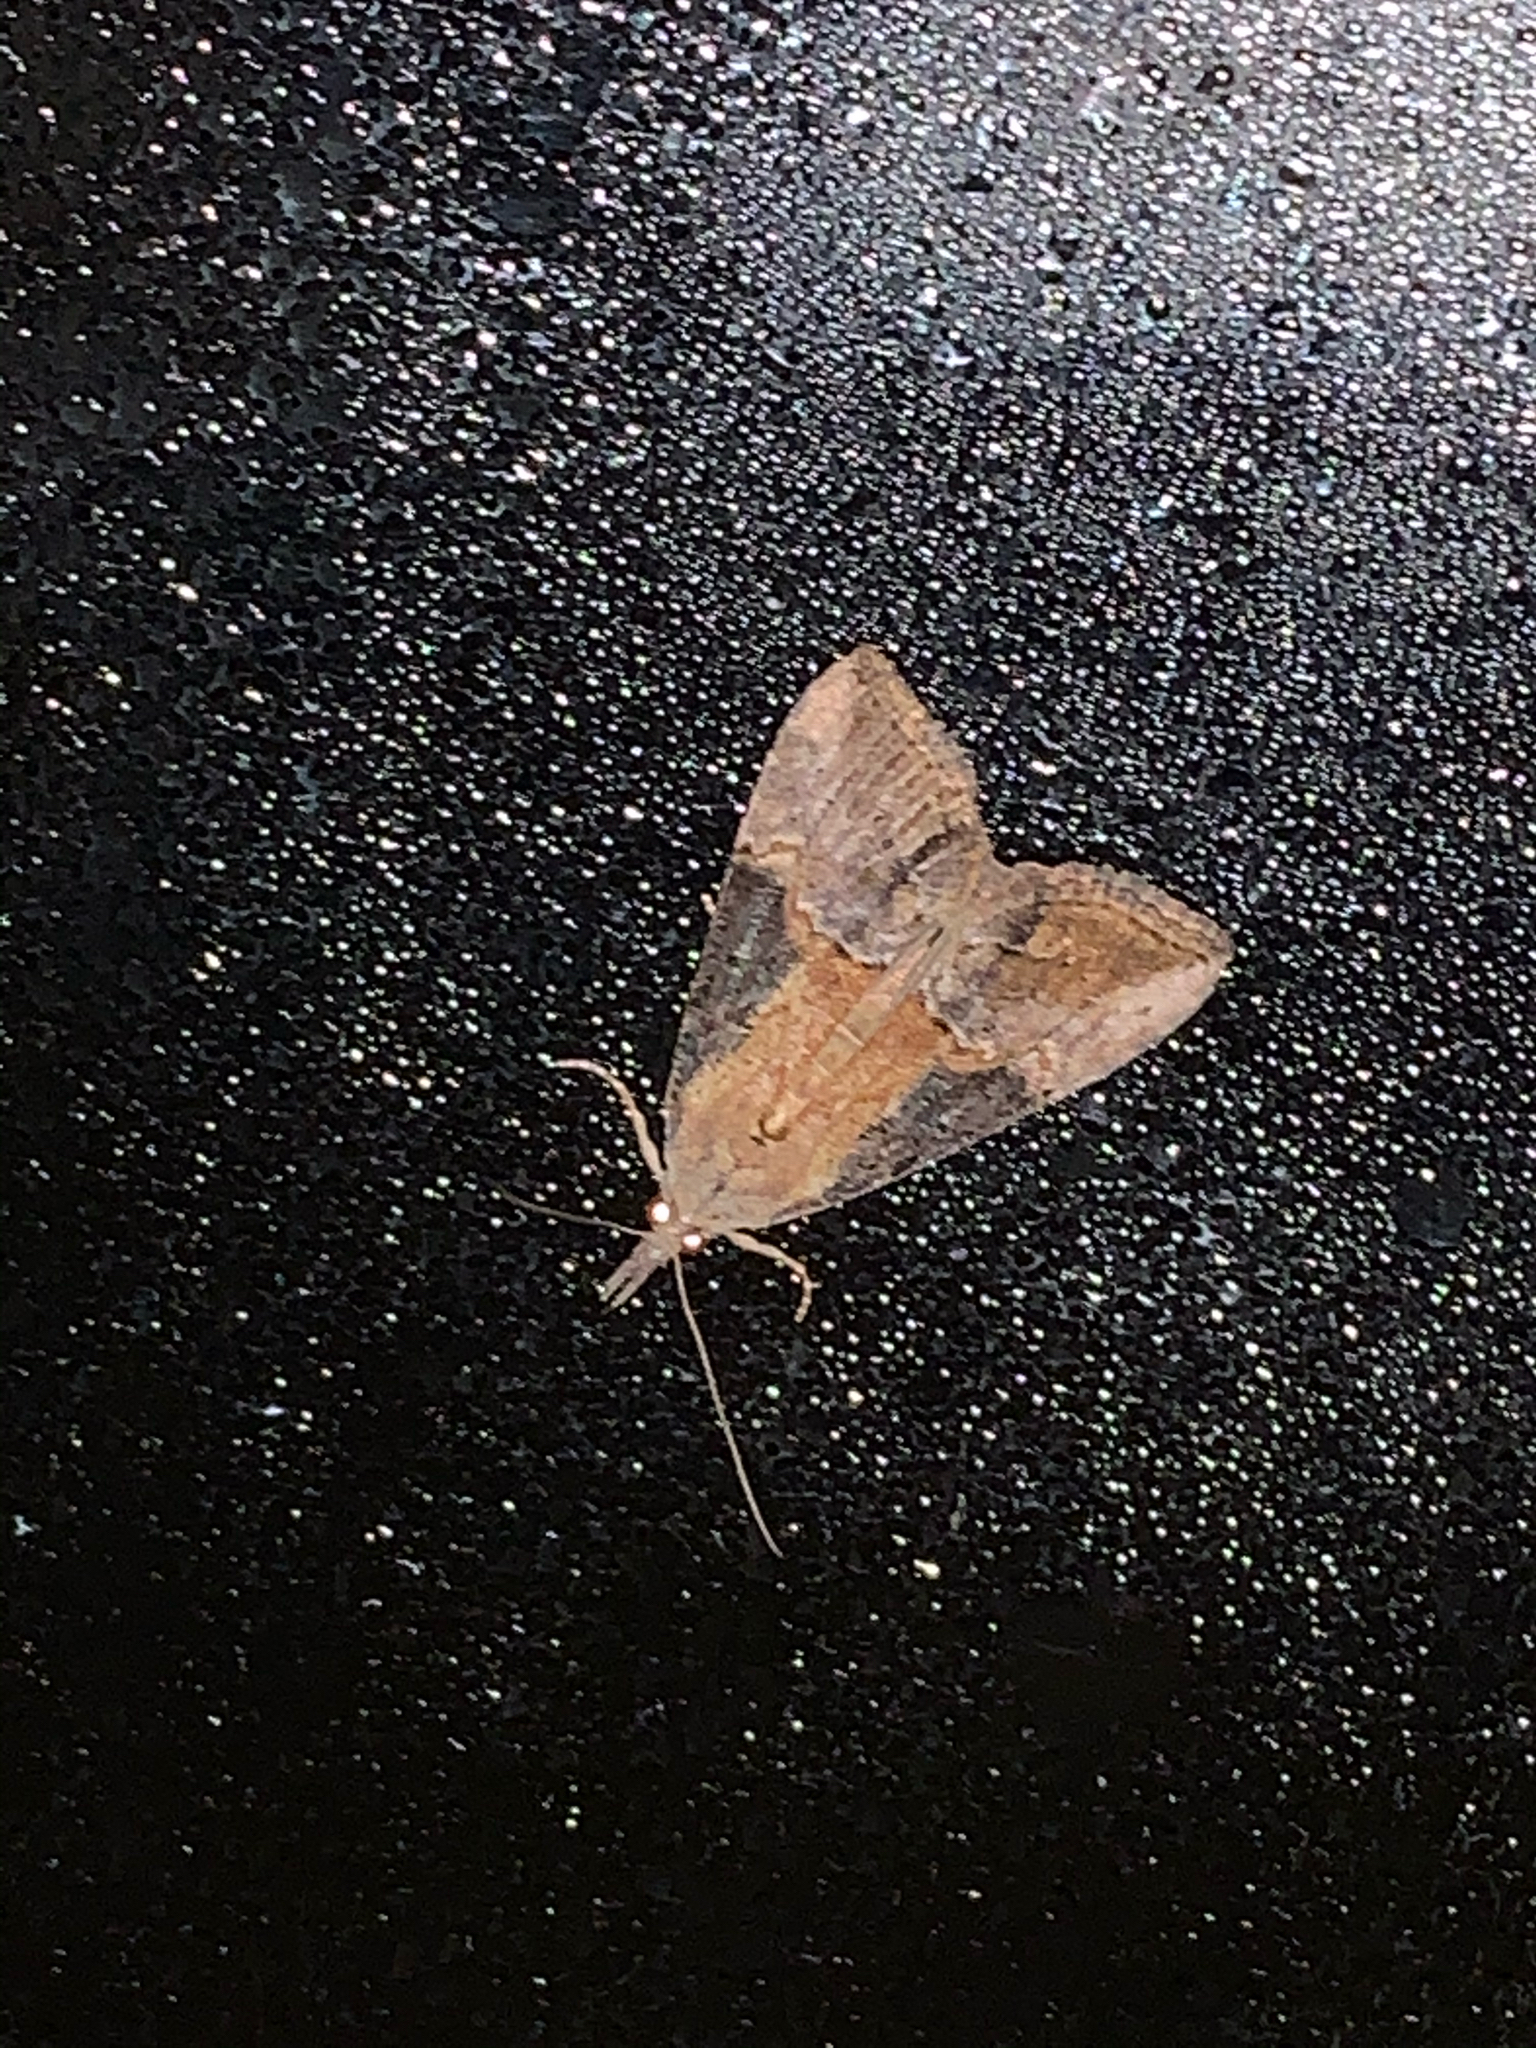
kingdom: Animalia
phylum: Arthropoda
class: Insecta
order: Lepidoptera
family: Erebidae
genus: Hypena
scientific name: Hypena scabra
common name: Green cloverworm
